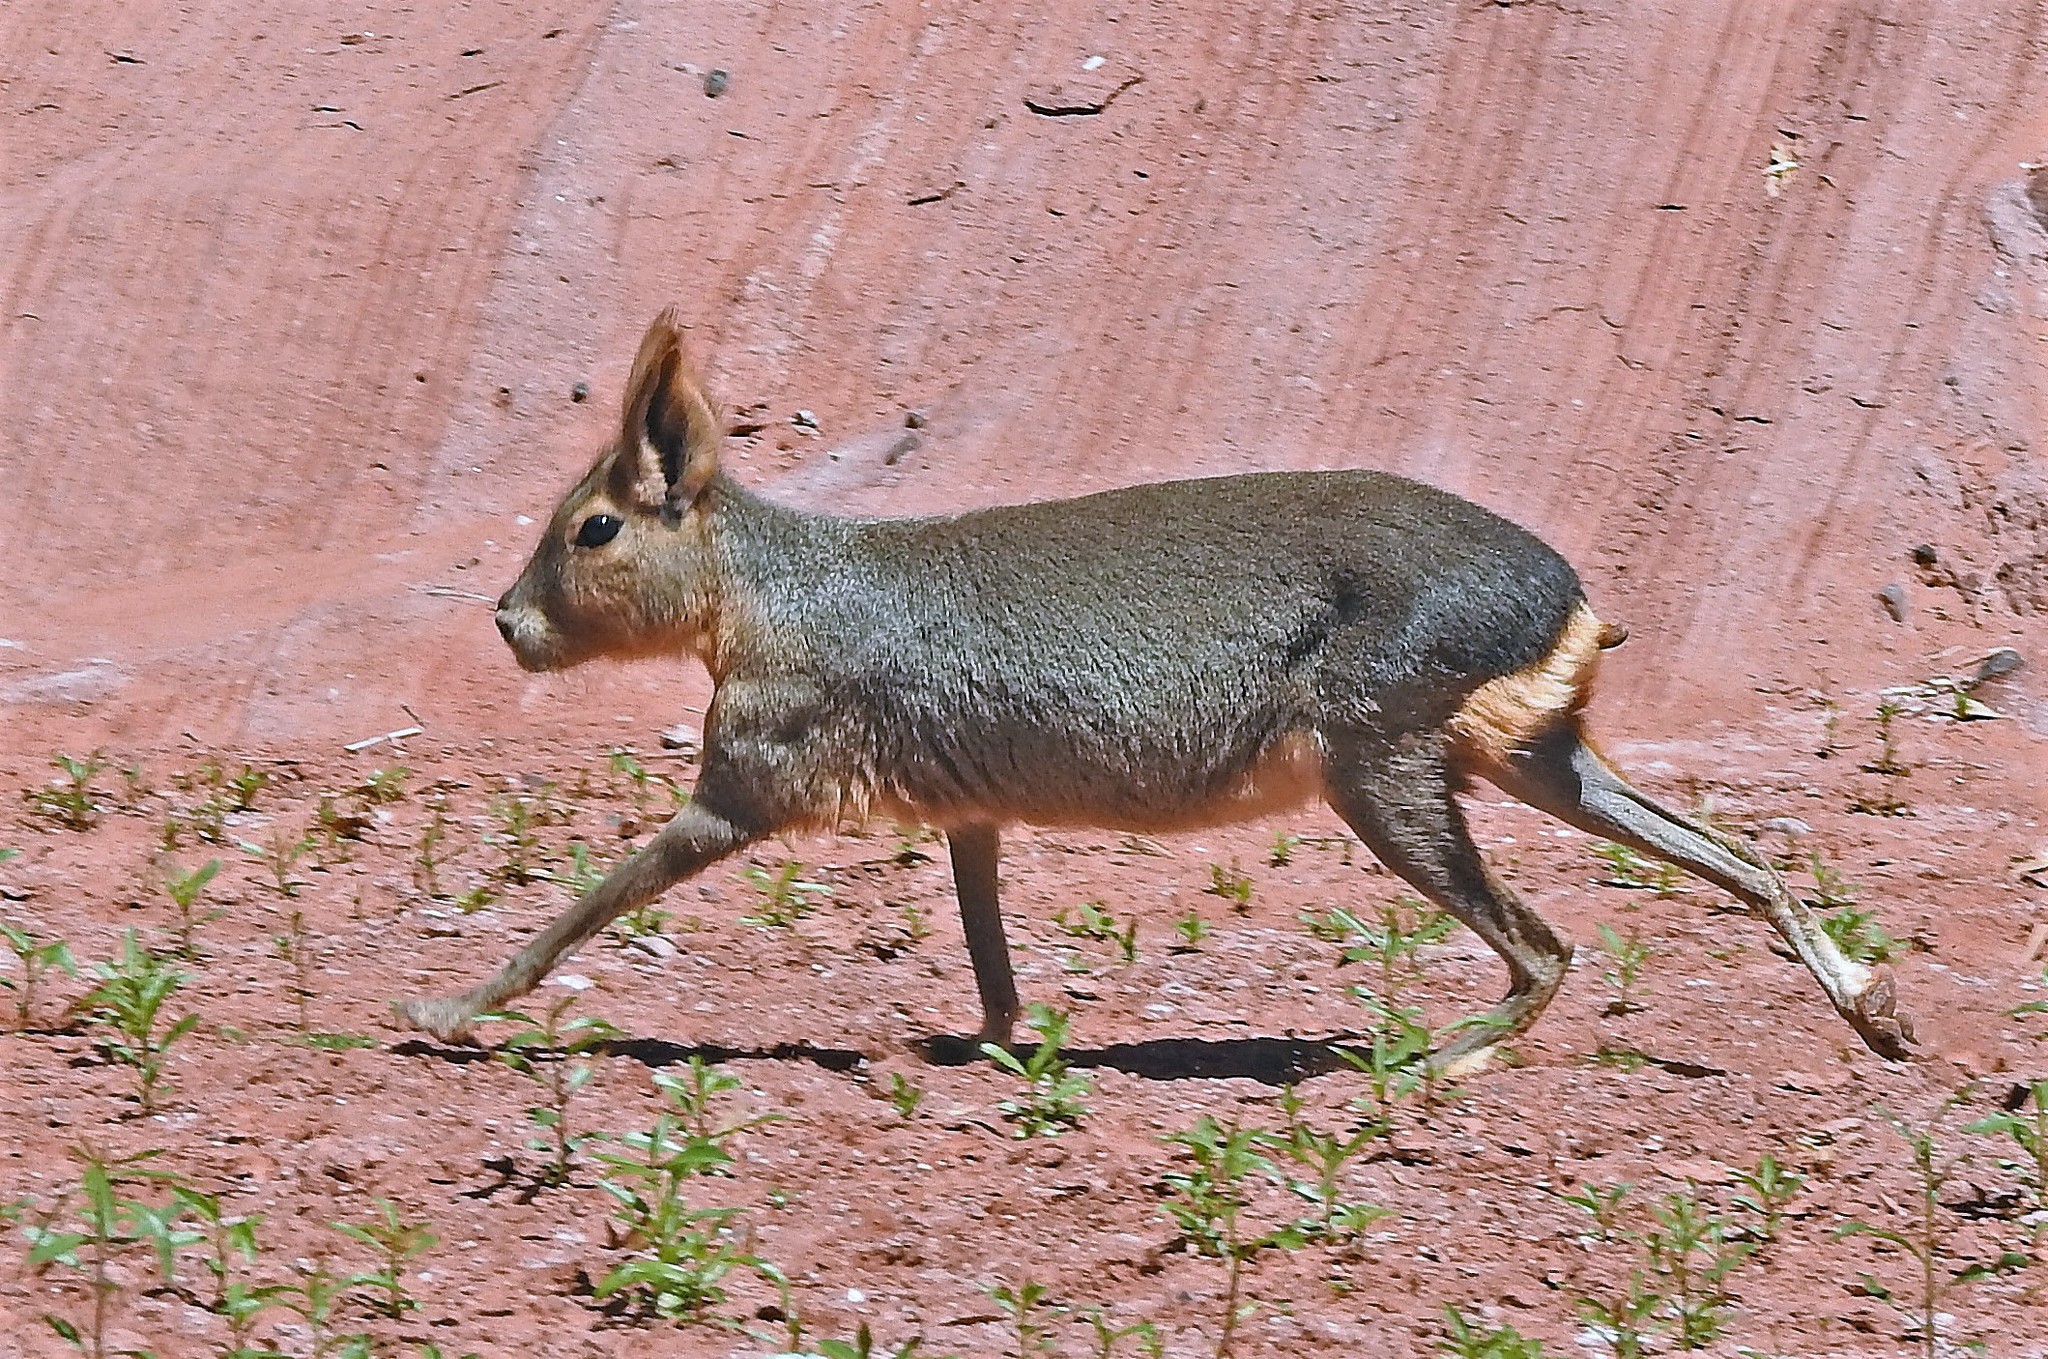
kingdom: Animalia
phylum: Chordata
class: Mammalia
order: Rodentia
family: Caviidae
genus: Dolichotis
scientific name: Dolichotis patagonum
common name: Patagonian mara
